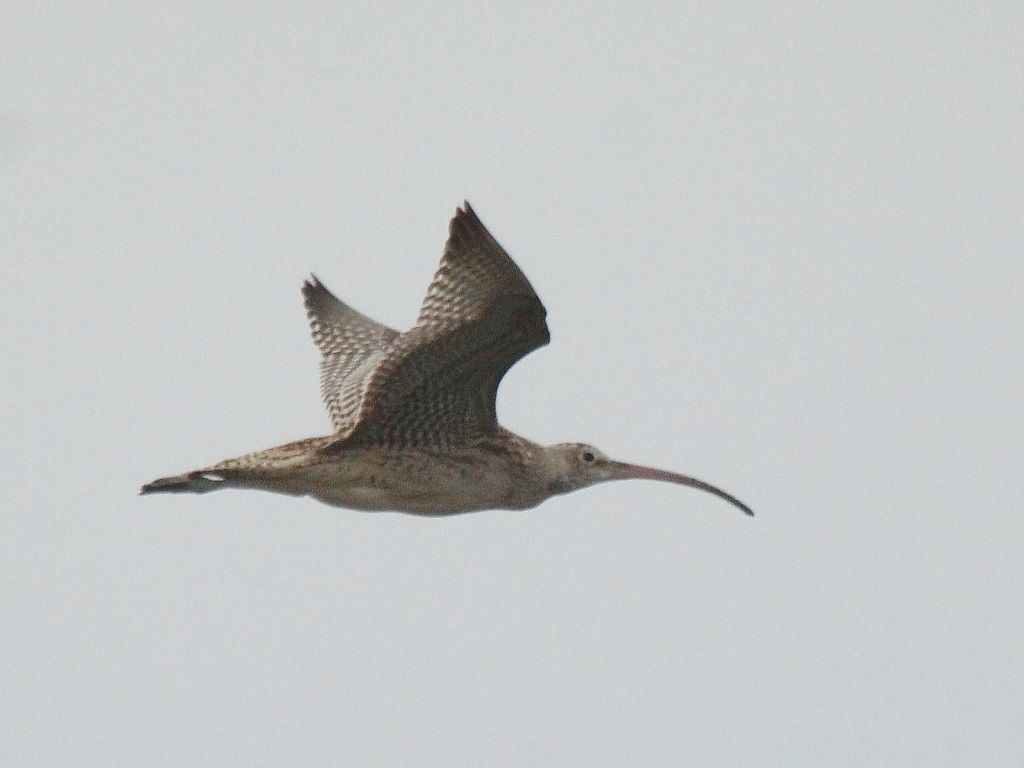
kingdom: Animalia
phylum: Chordata
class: Aves
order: Charadriiformes
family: Scolopacidae
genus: Numenius
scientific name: Numenius madagascariensis
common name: Far eastern curlew
